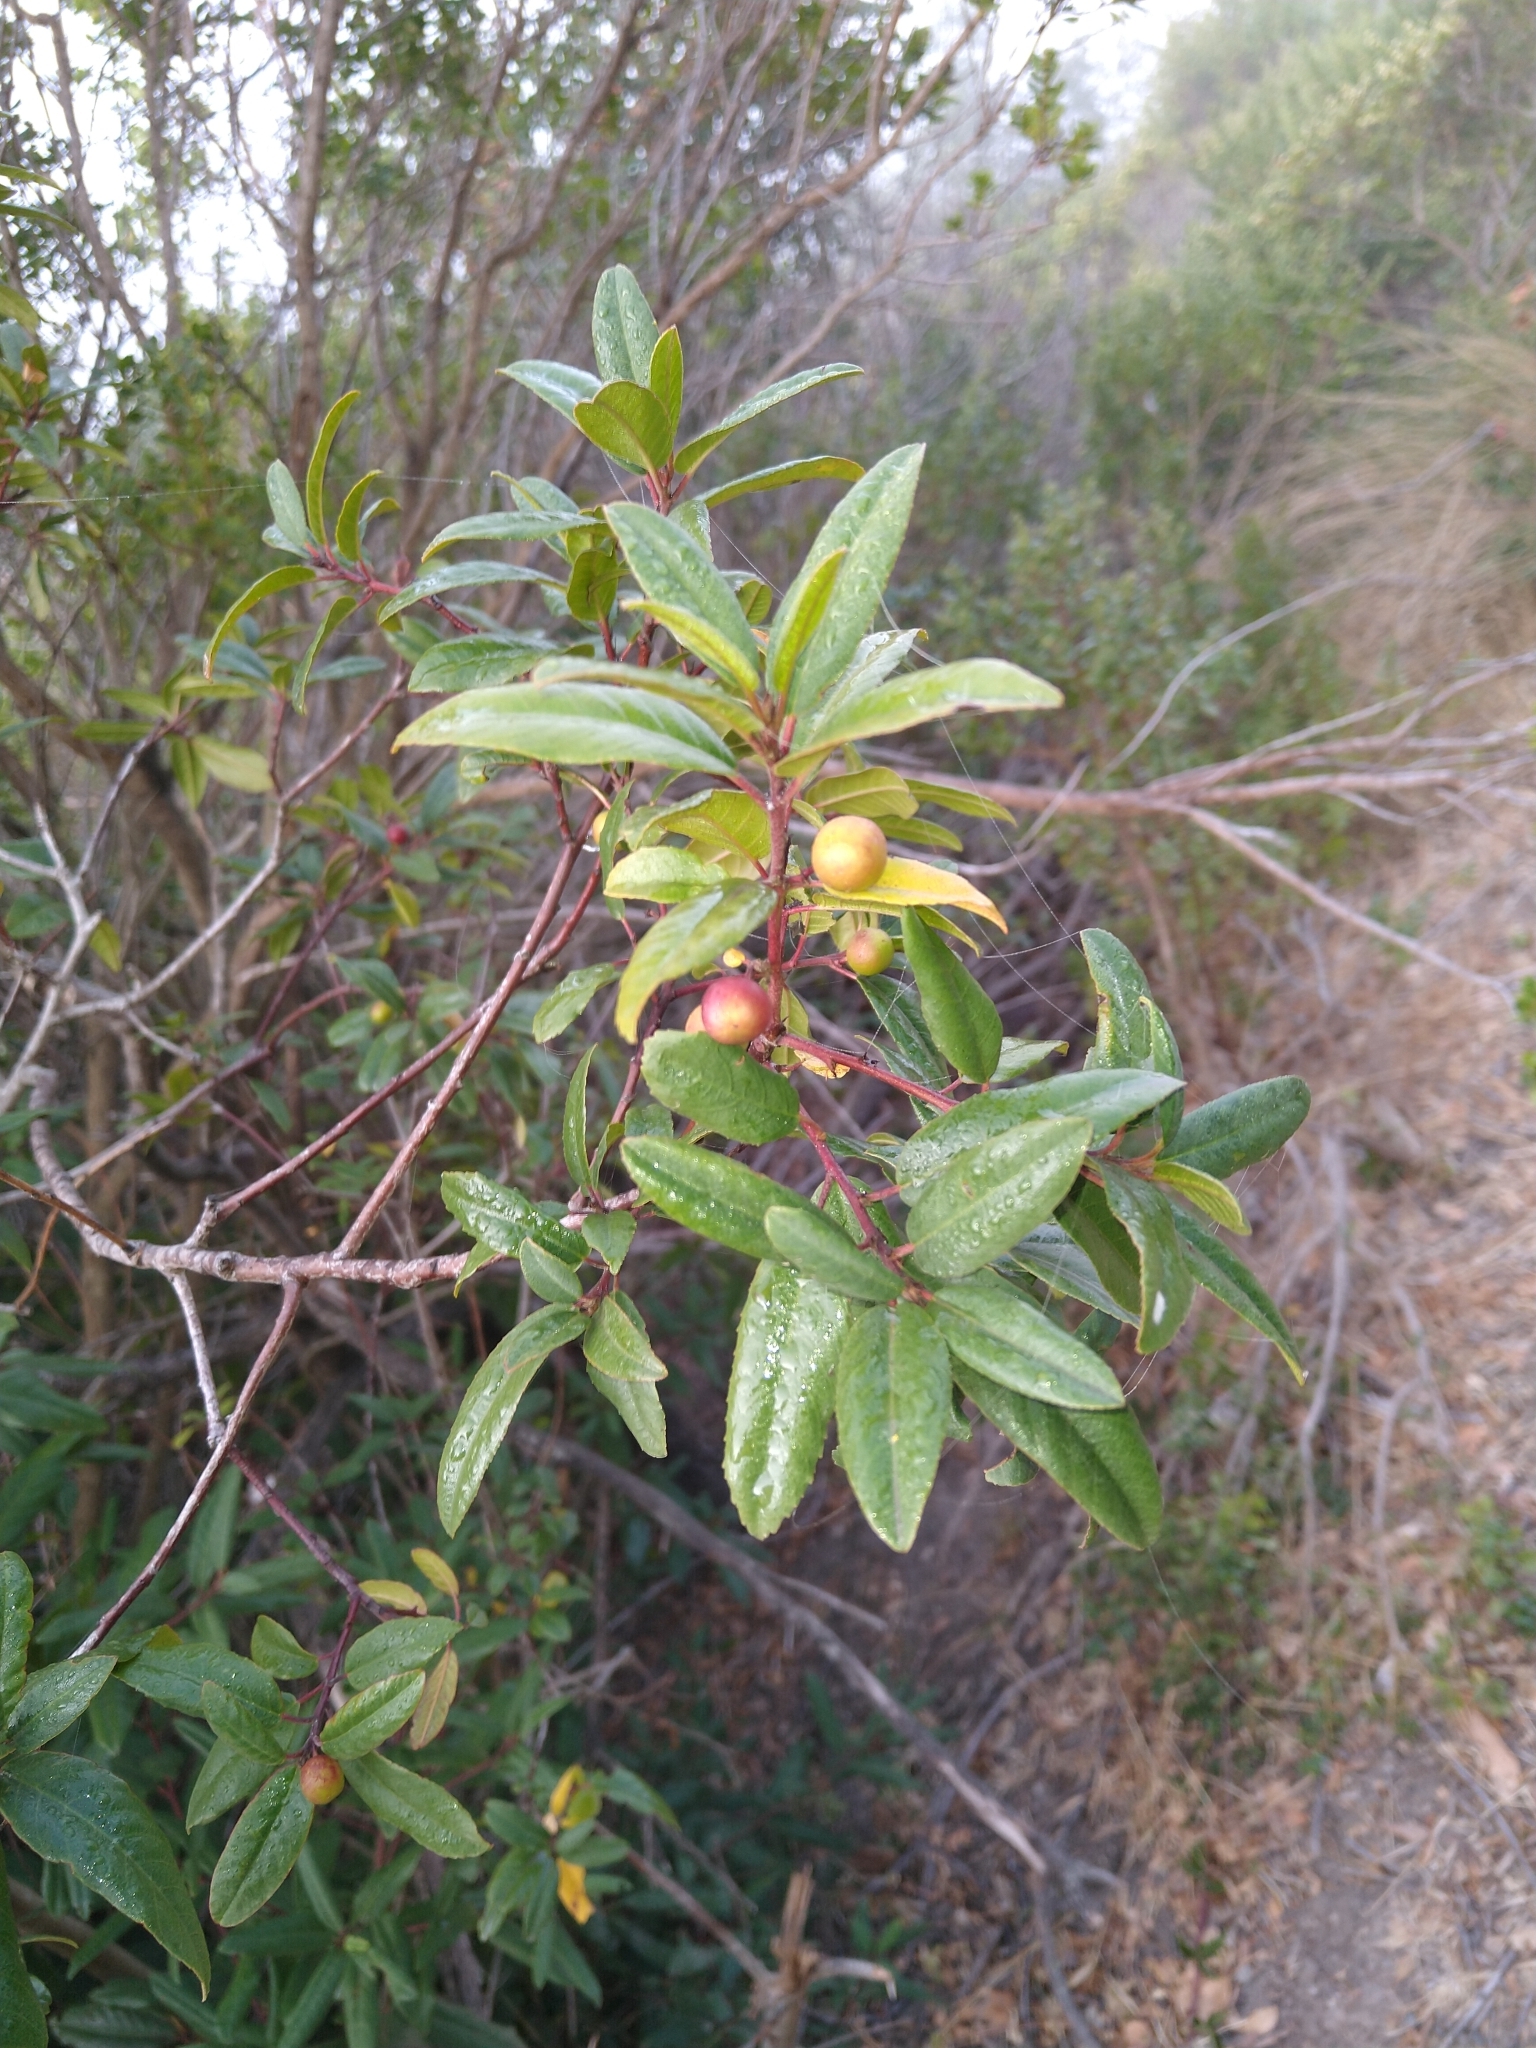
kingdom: Plantae
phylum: Tracheophyta
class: Magnoliopsida
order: Rosales
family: Rhamnaceae
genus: Frangula
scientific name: Frangula californica
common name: California buckthorn
